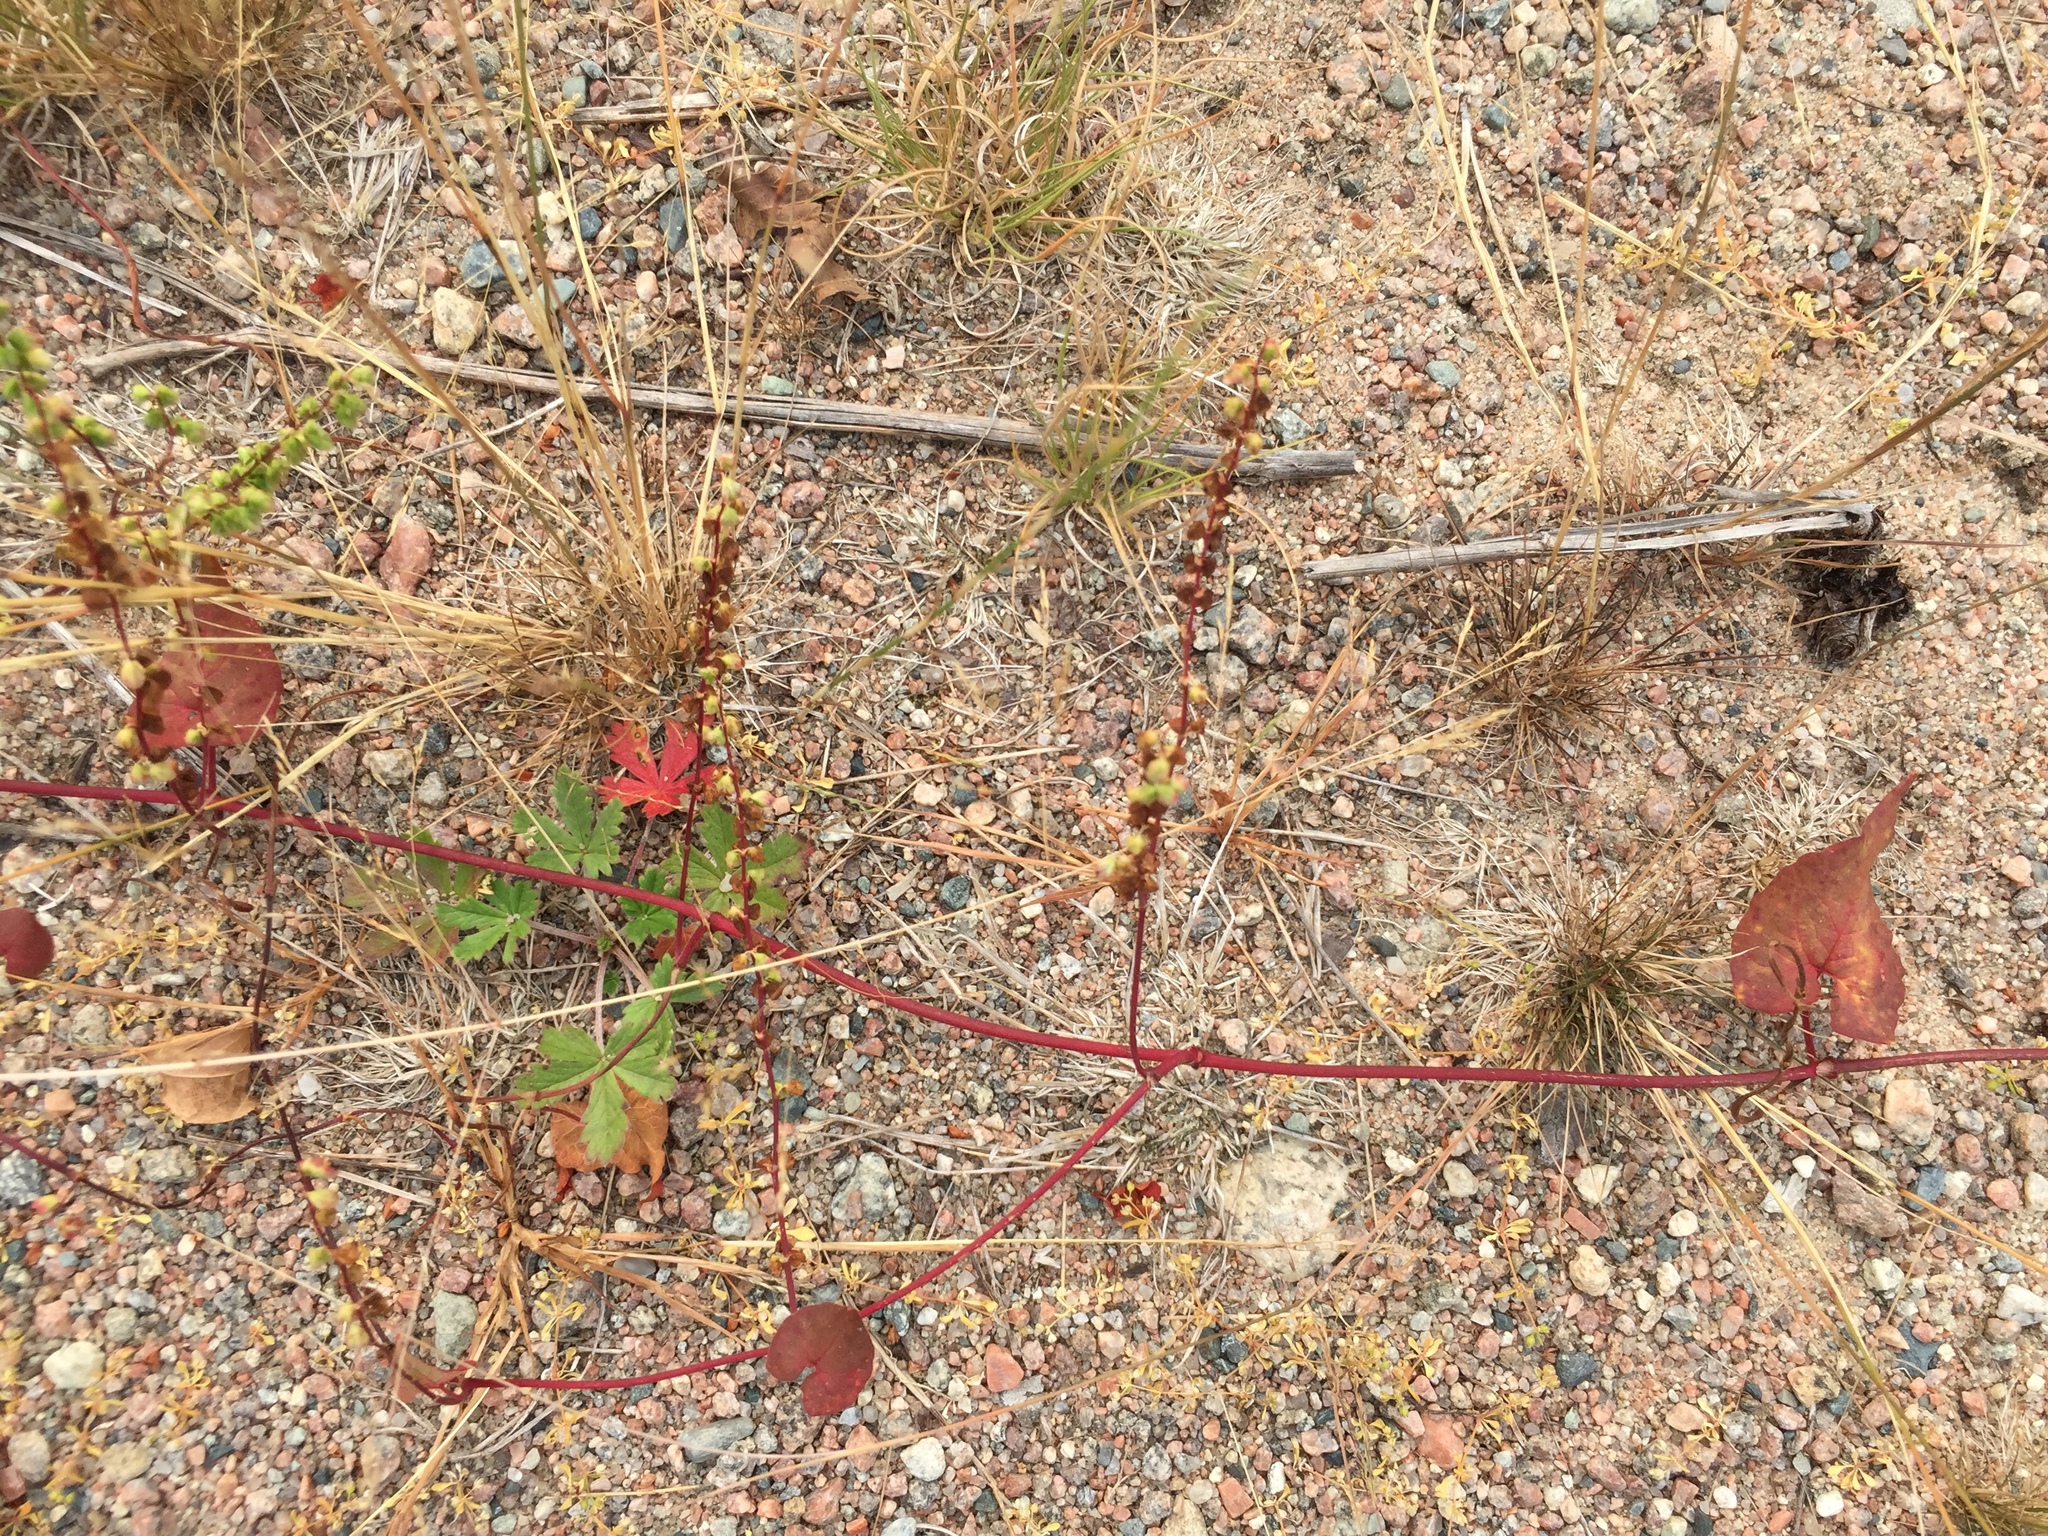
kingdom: Plantae
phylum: Tracheophyta
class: Magnoliopsida
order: Caryophyllales
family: Polygonaceae
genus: Parogonum
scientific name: Parogonum ciliinode
